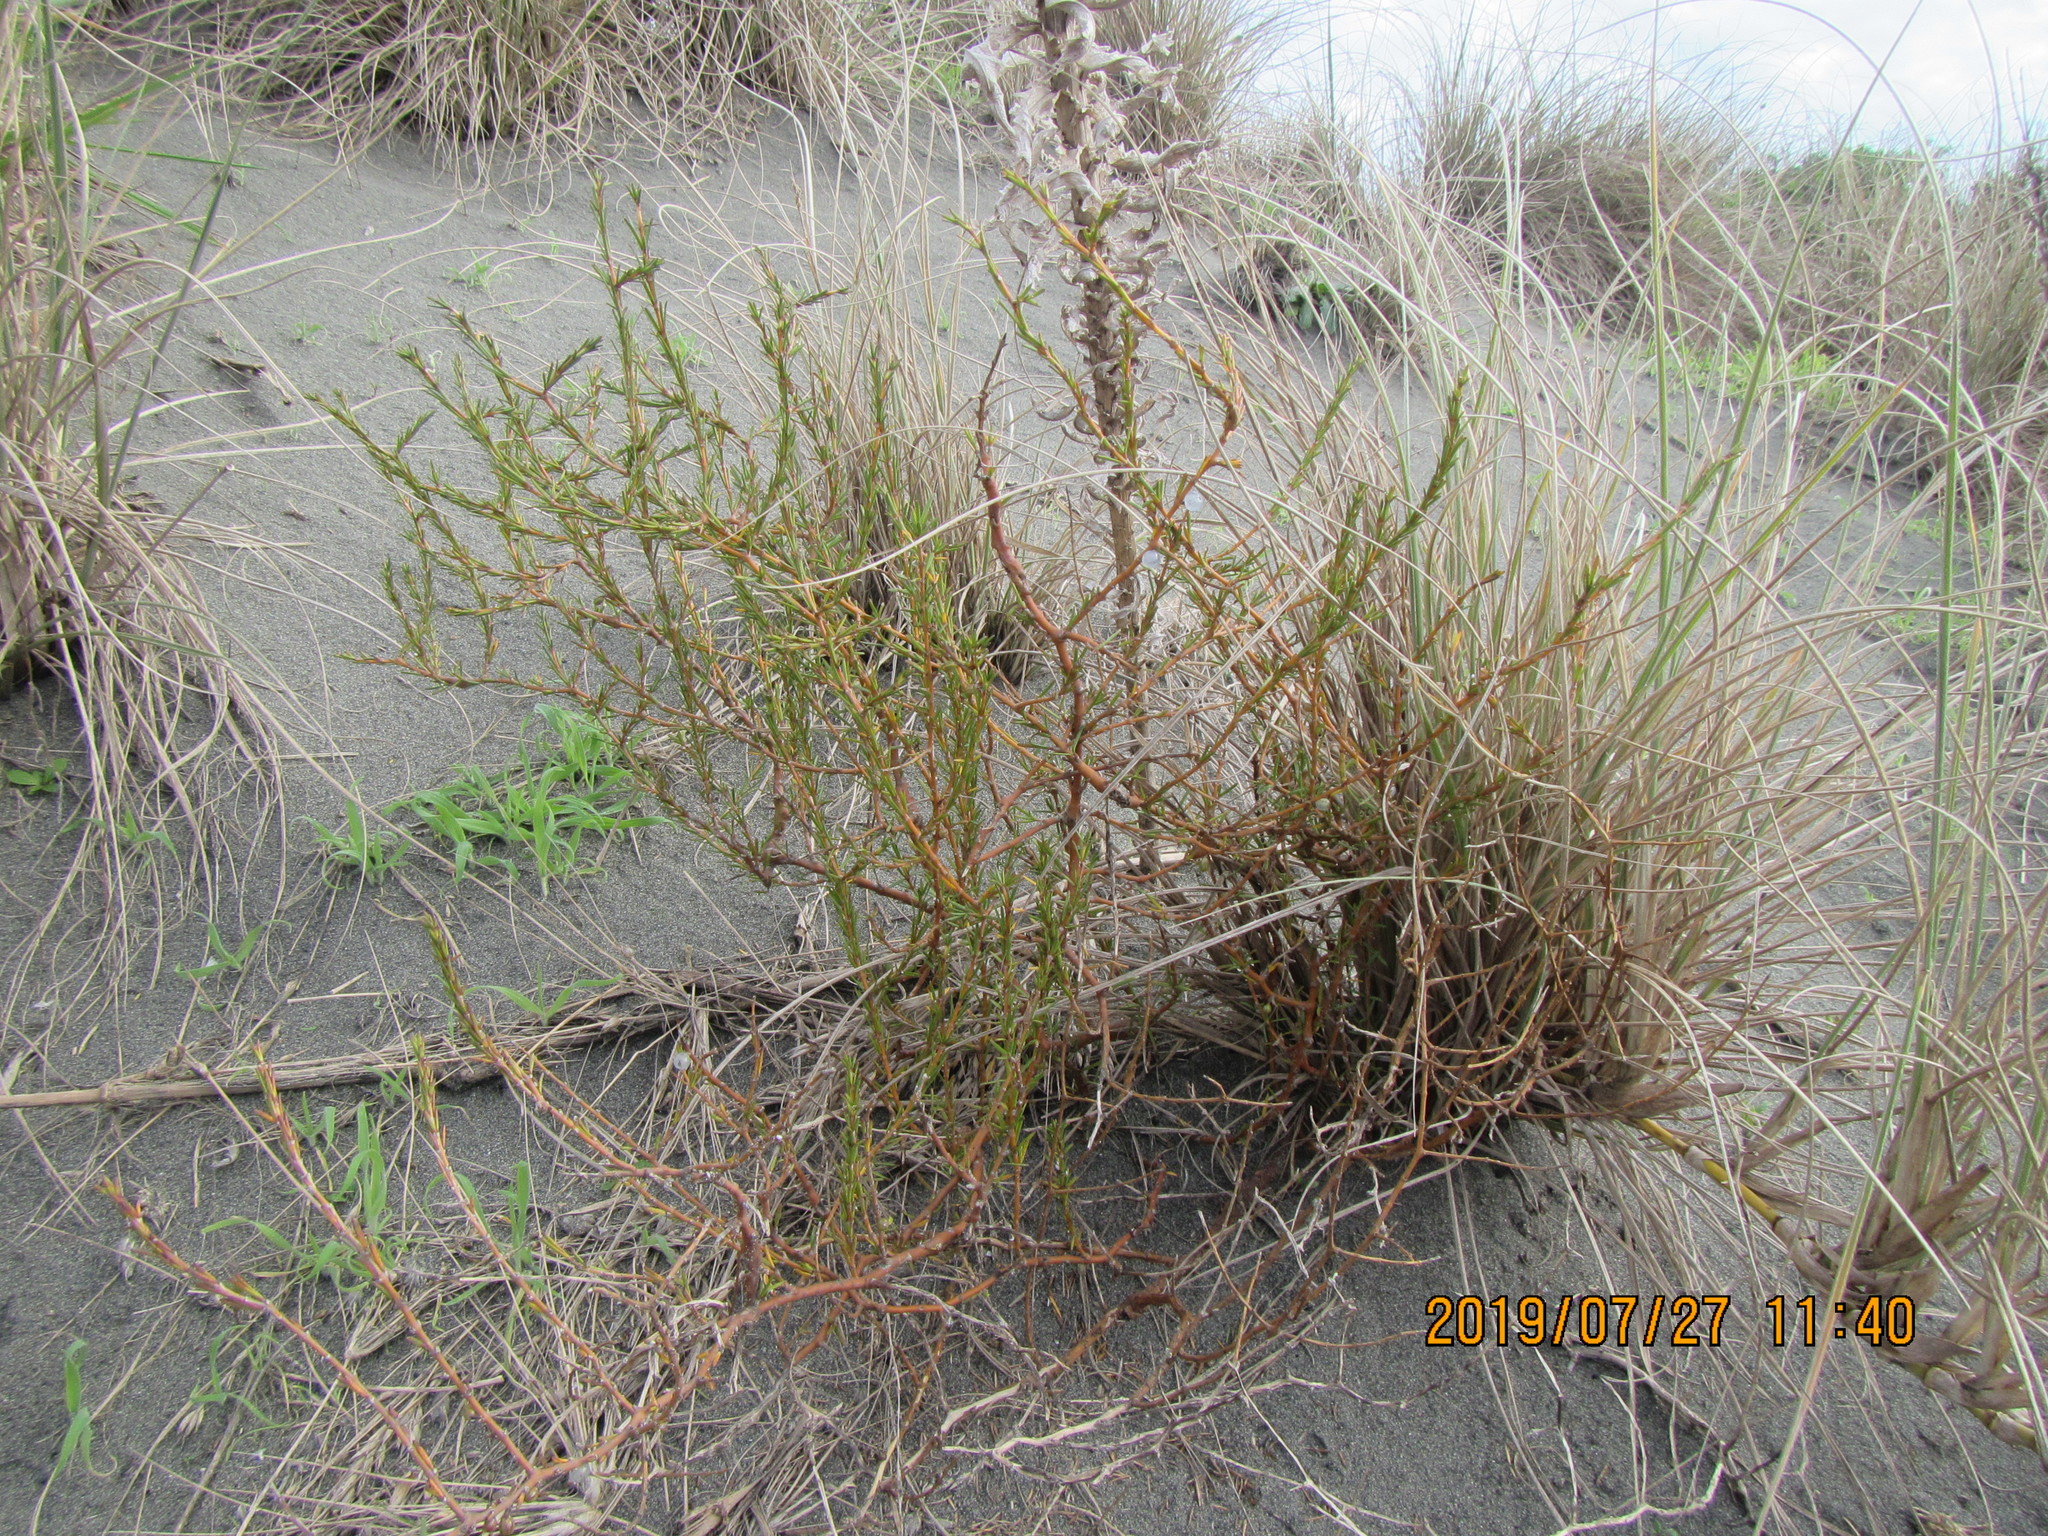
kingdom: Plantae
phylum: Tracheophyta
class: Magnoliopsida
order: Gentianales
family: Rubiaceae
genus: Coprosma
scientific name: Coprosma acerosa
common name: Sand coprosma
